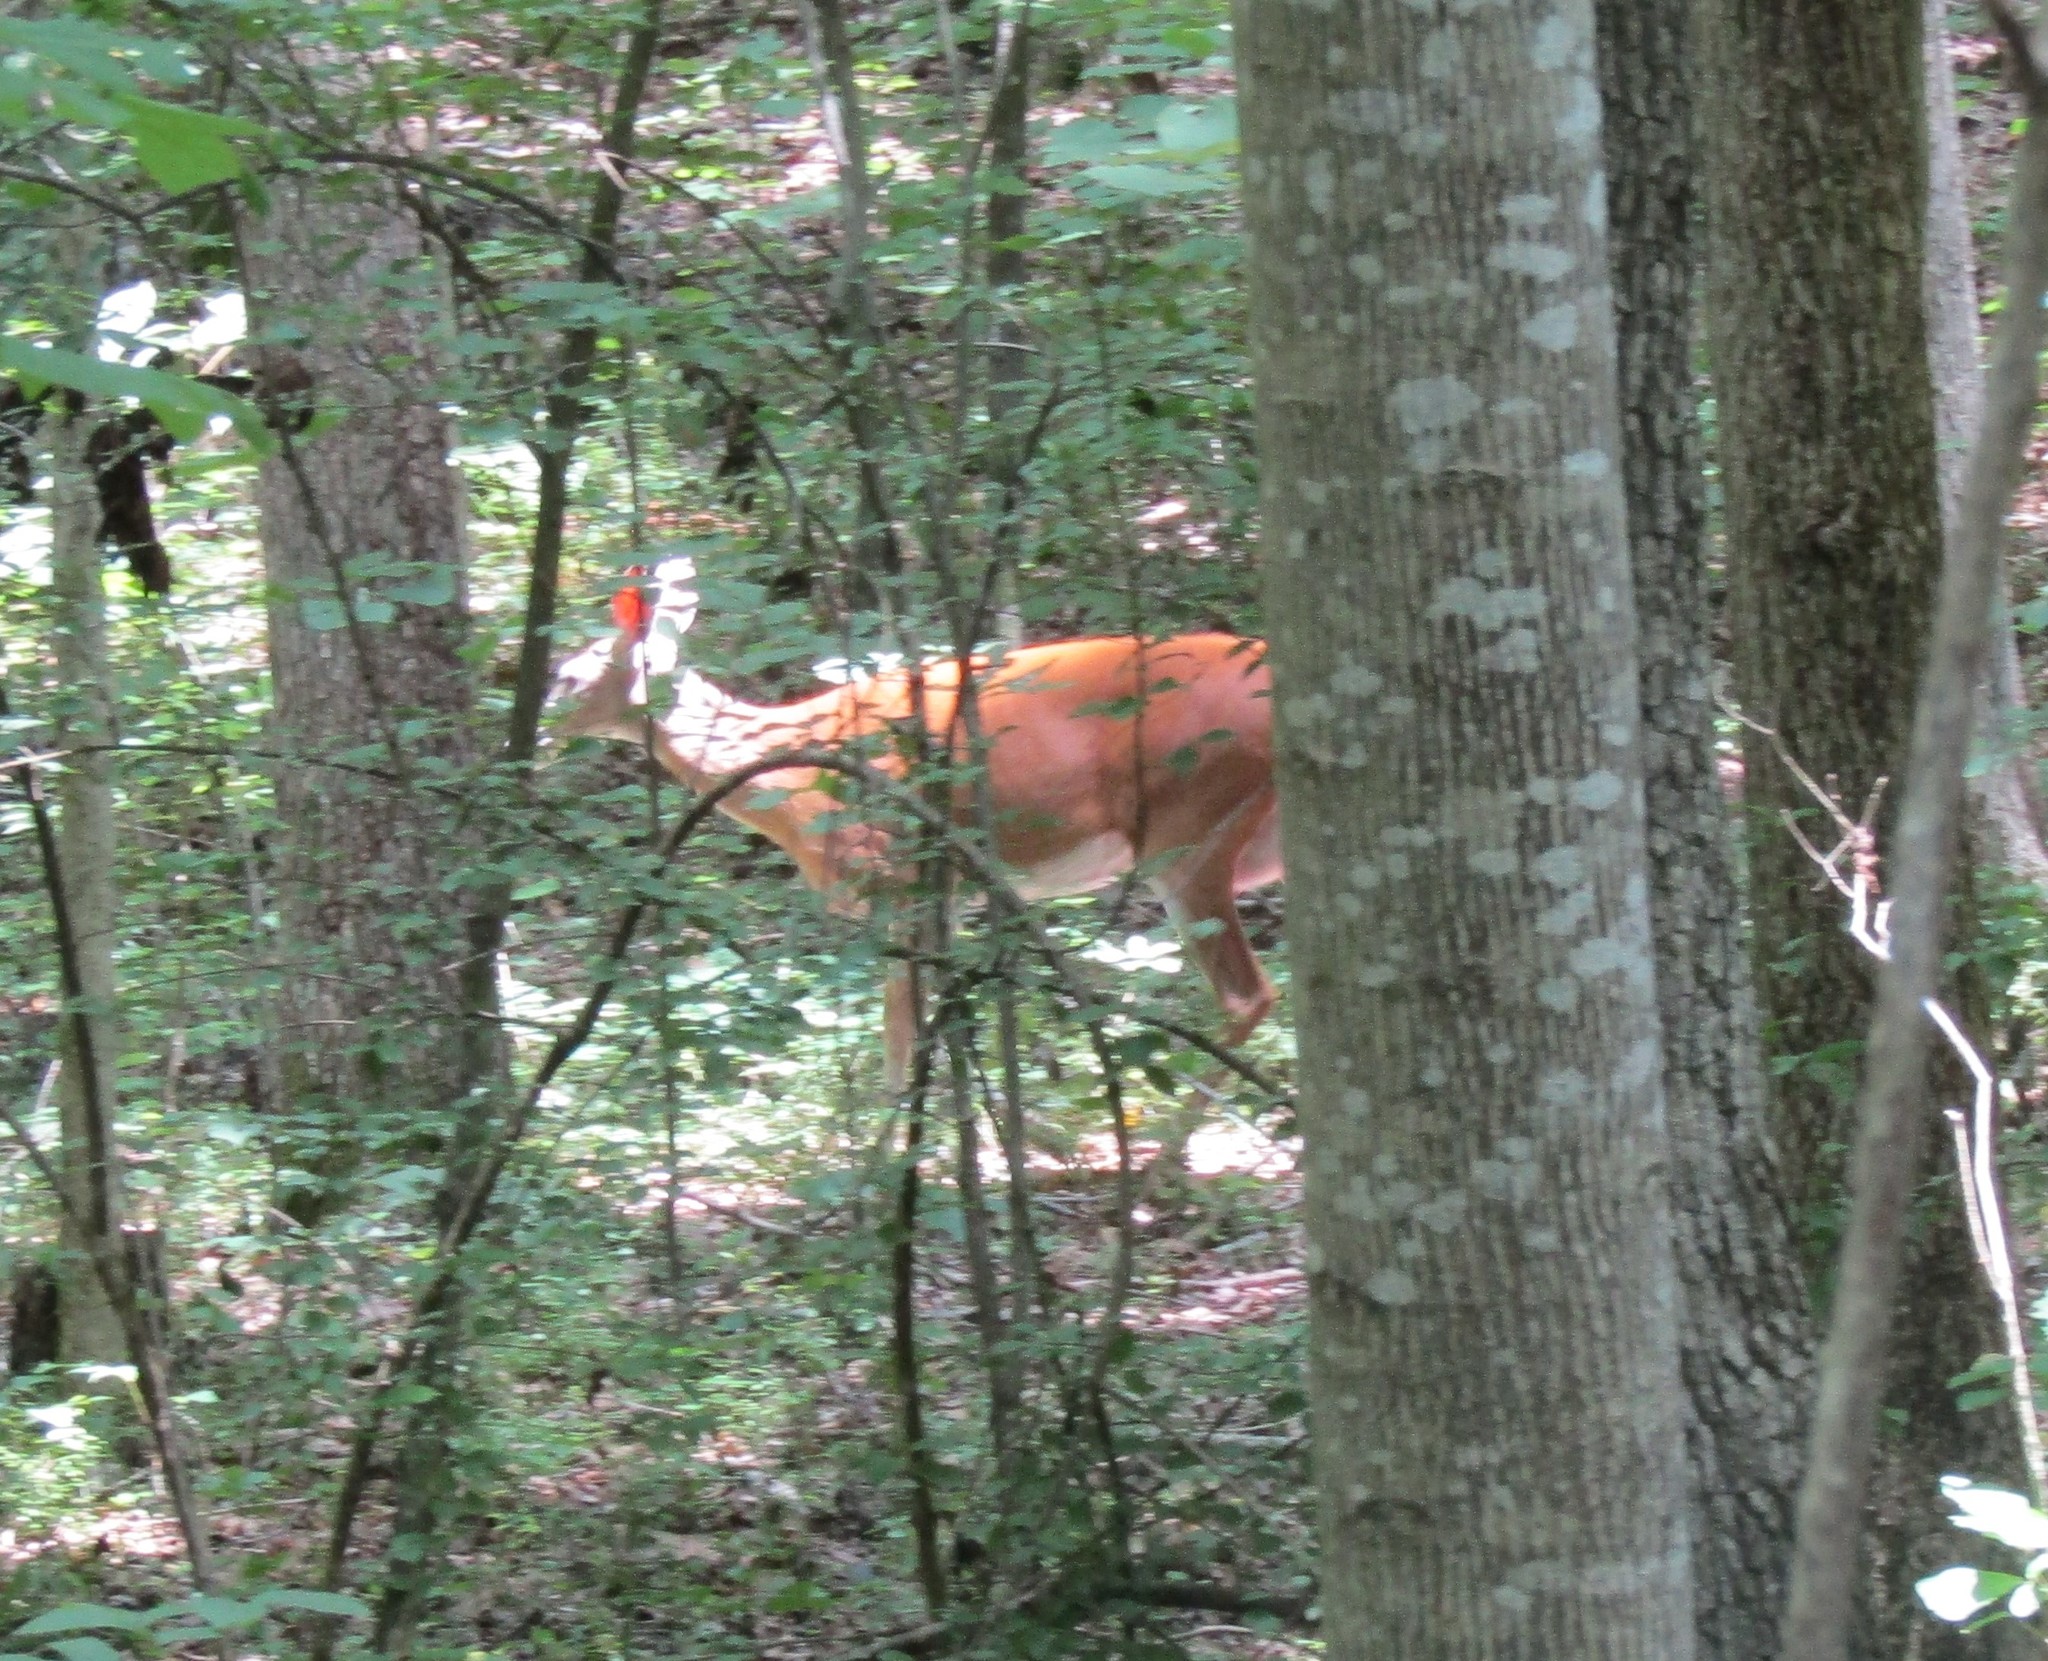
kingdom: Animalia
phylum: Chordata
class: Mammalia
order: Artiodactyla
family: Cervidae
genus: Odocoileus
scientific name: Odocoileus virginianus
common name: White-tailed deer
